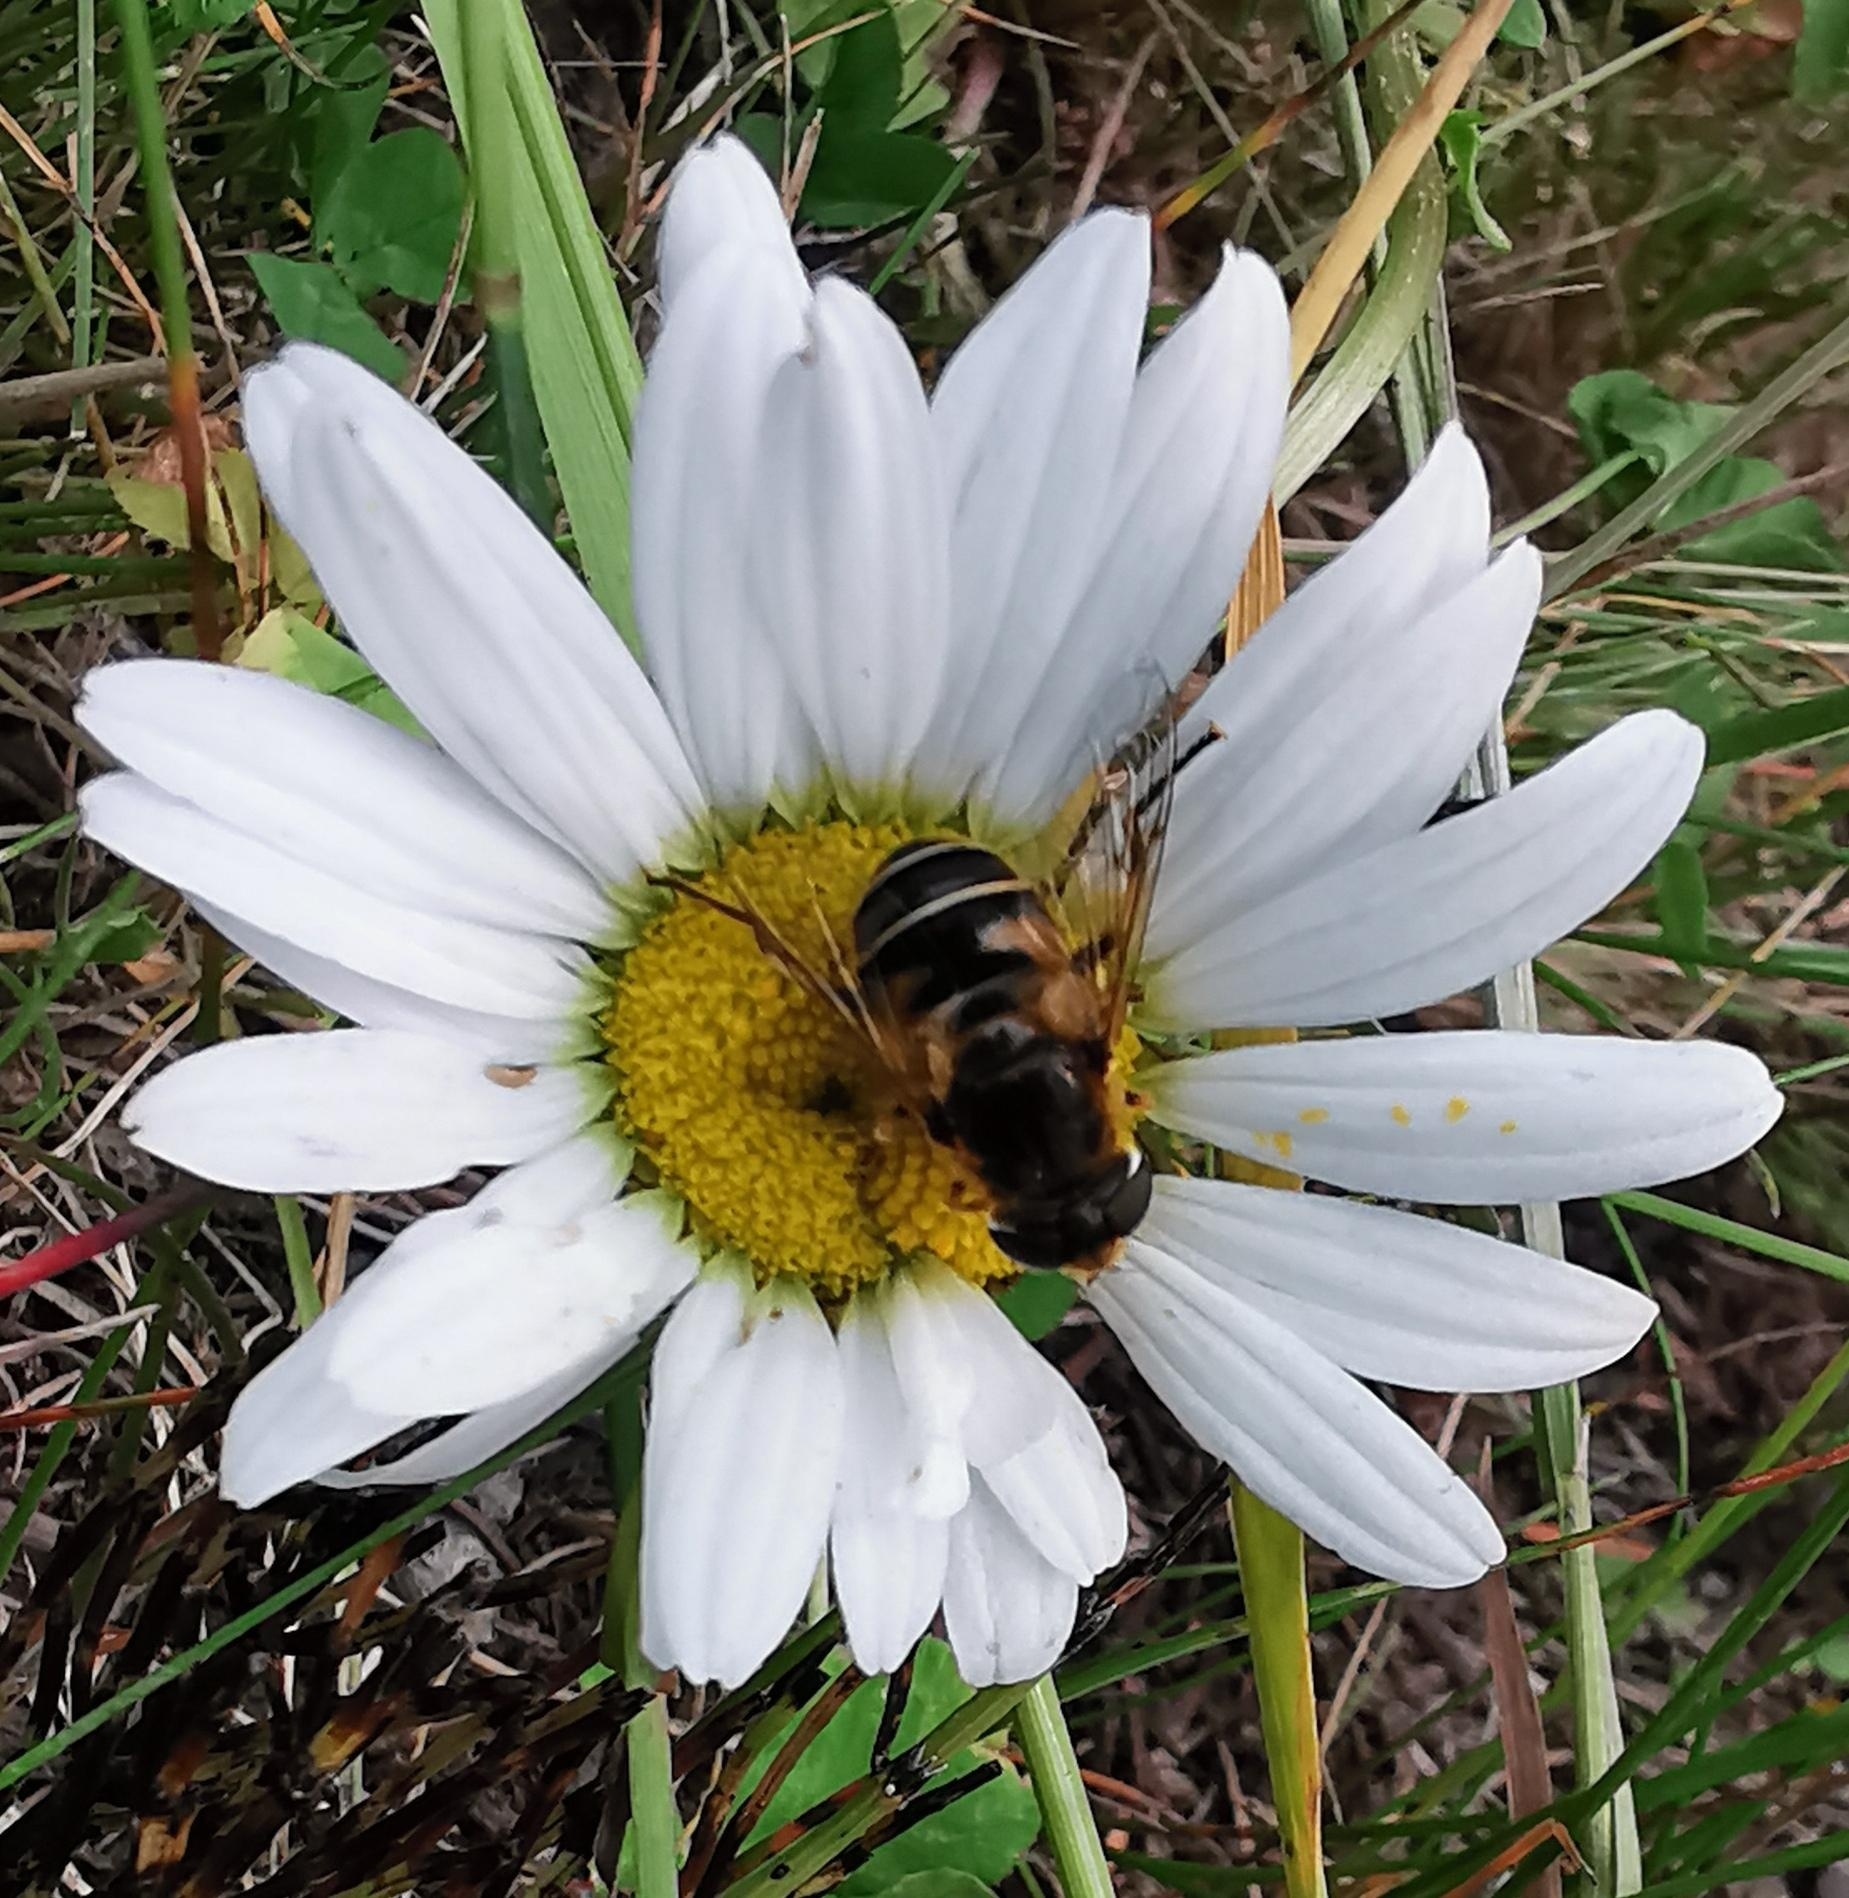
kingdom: Animalia
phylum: Arthropoda
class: Insecta
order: Diptera
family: Syrphidae
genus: Eristalis
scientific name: Eristalis nemorum
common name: Orange-spined drone fly
